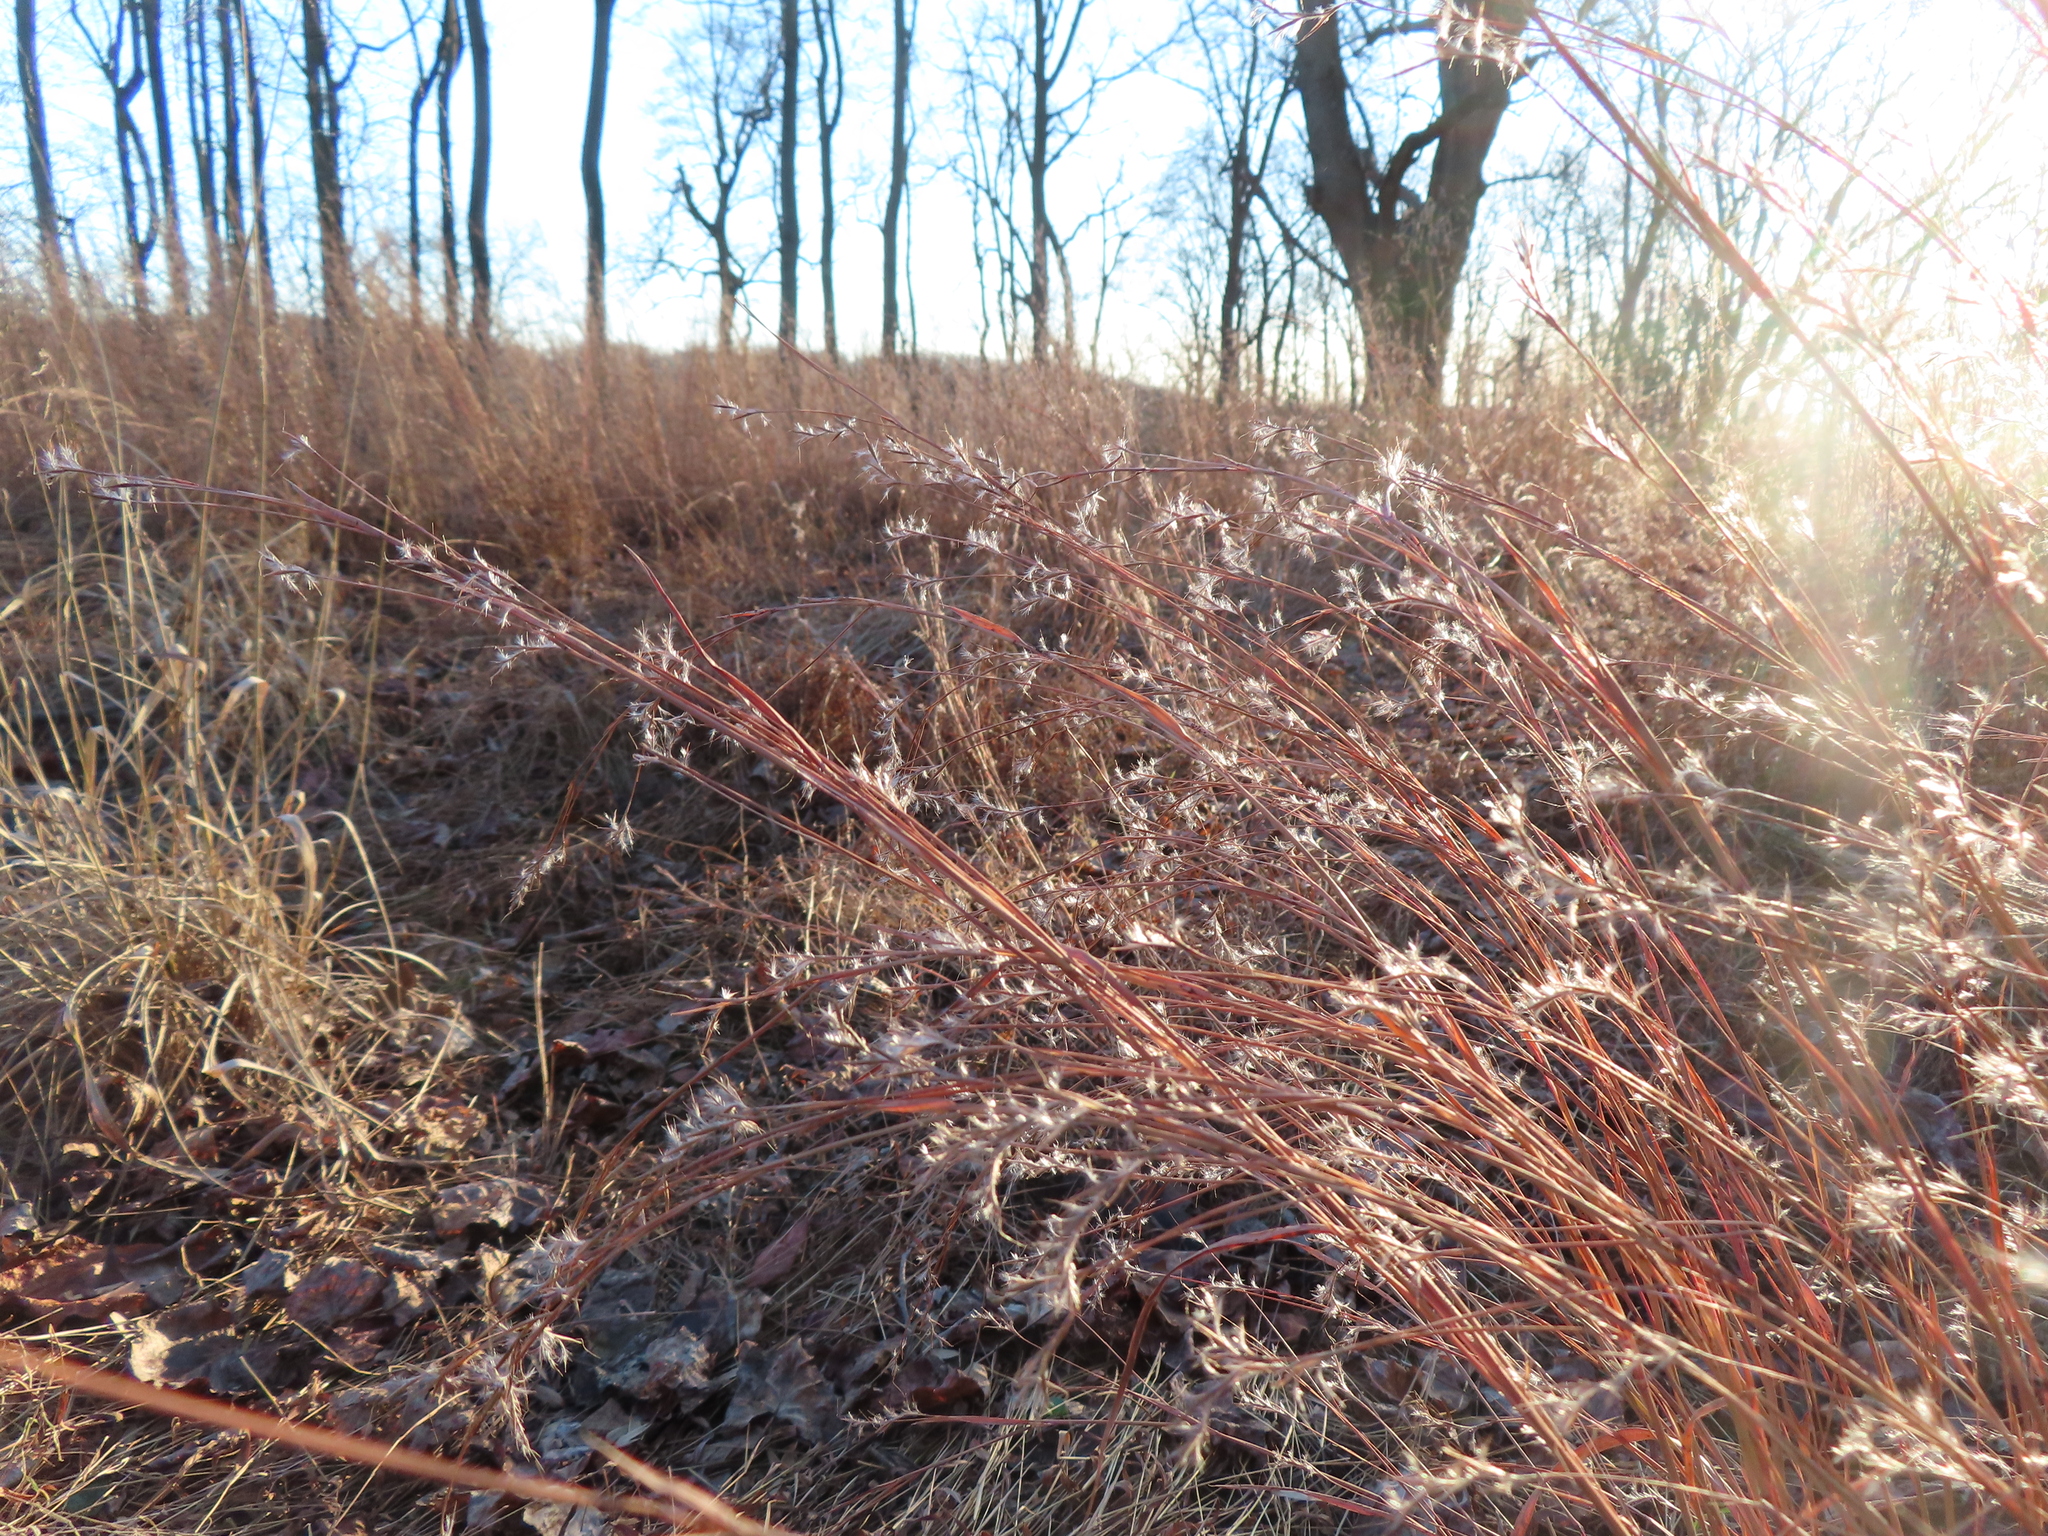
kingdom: Plantae
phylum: Tracheophyta
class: Liliopsida
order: Poales
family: Poaceae
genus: Schizachyrium
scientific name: Schizachyrium scoparium
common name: Little bluestem
